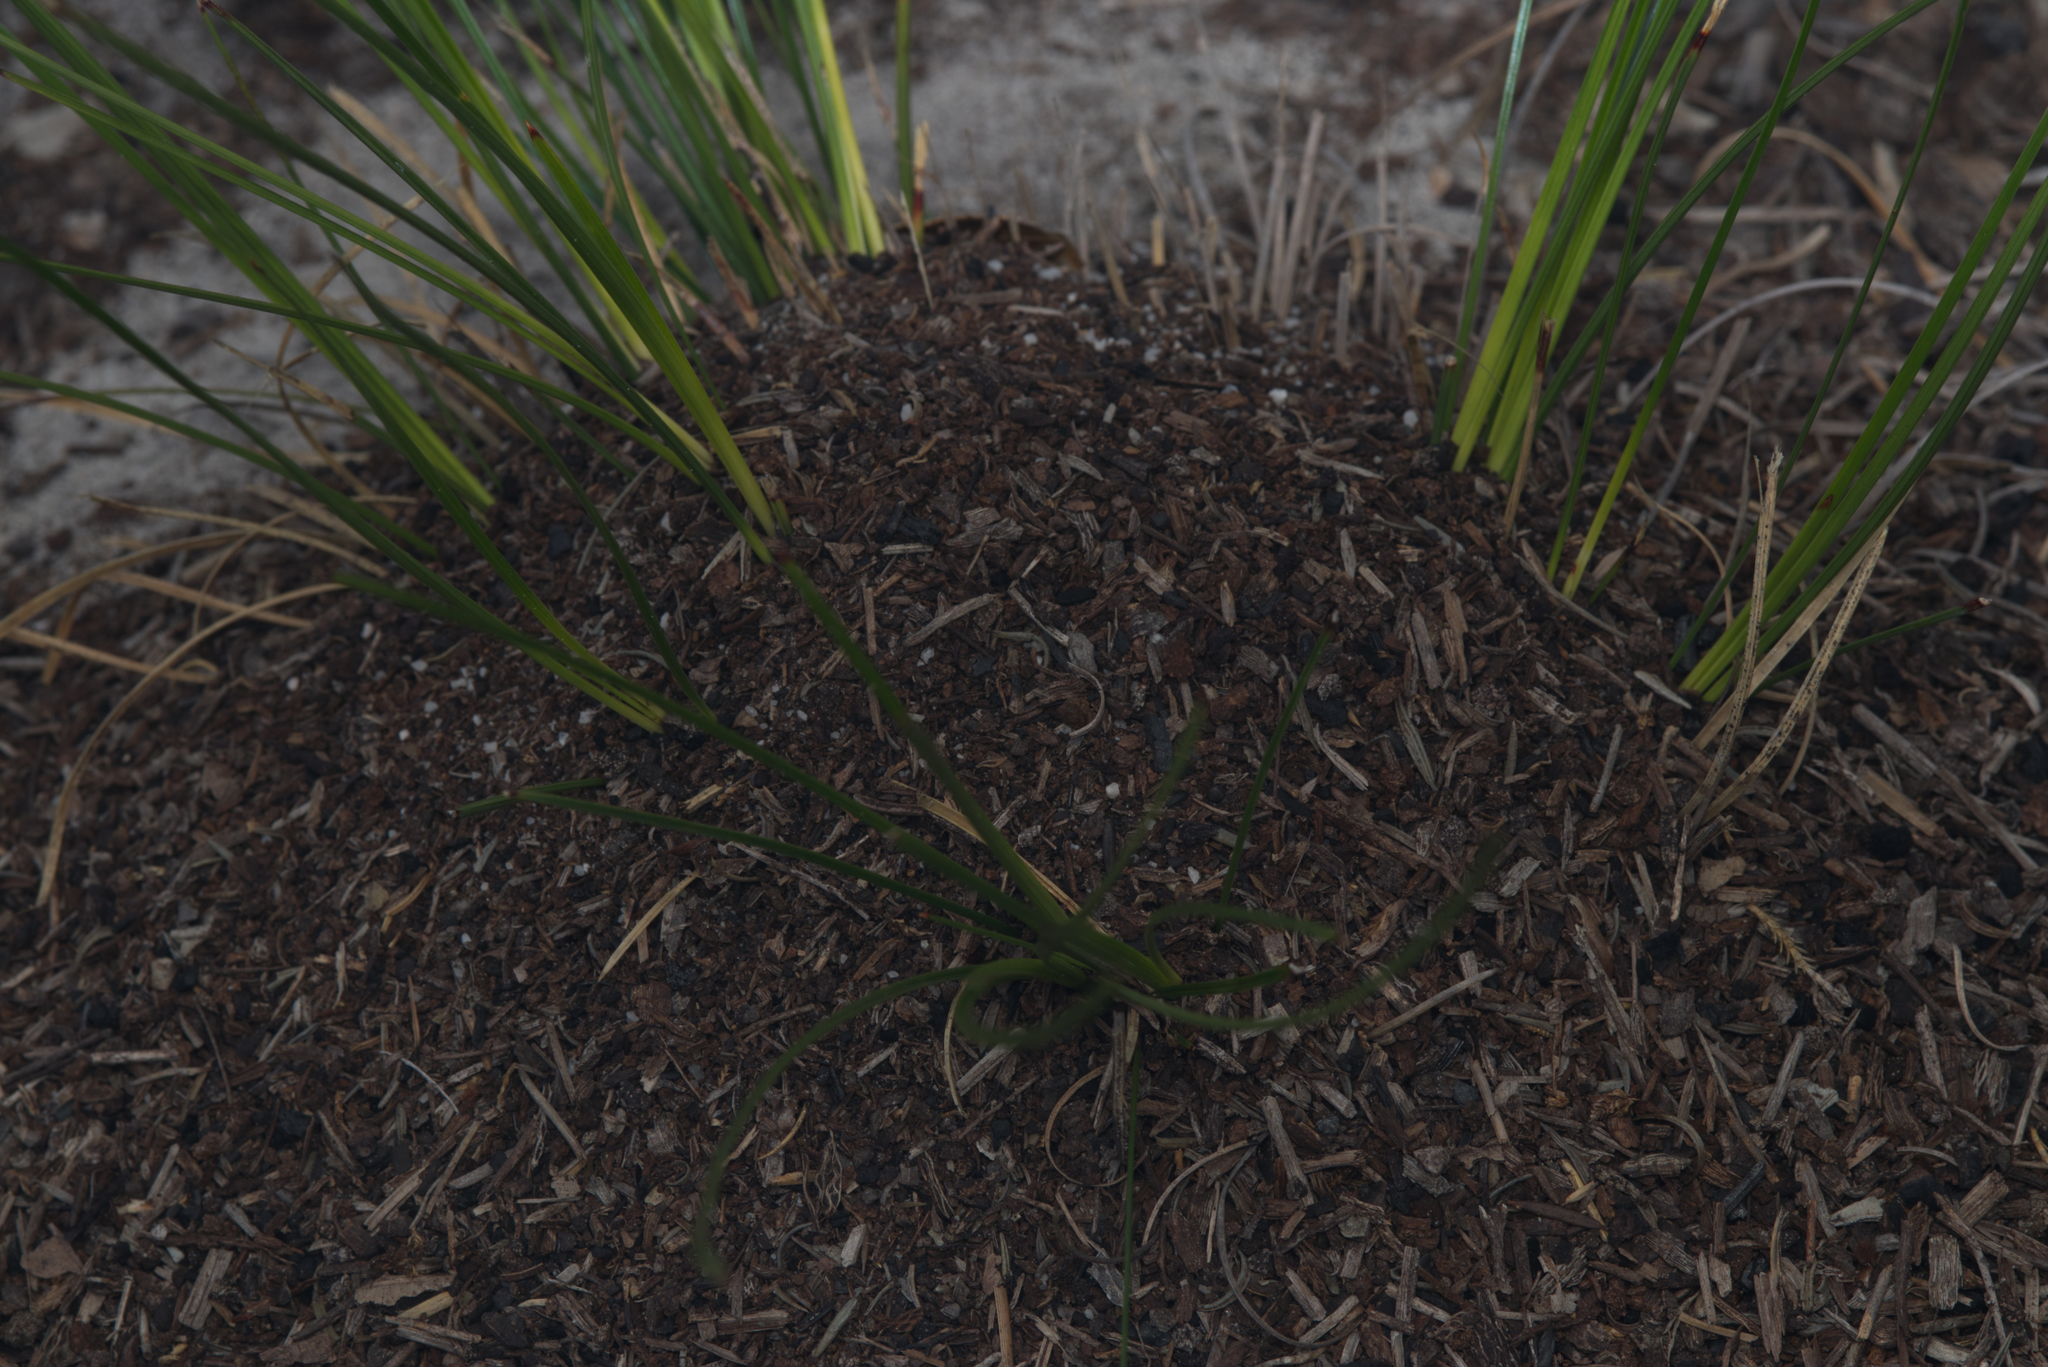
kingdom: Animalia
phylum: Arthropoda
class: Insecta
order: Hymenoptera
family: Formicidae
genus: Iridomyrmex
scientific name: Iridomyrmex bicknelli
